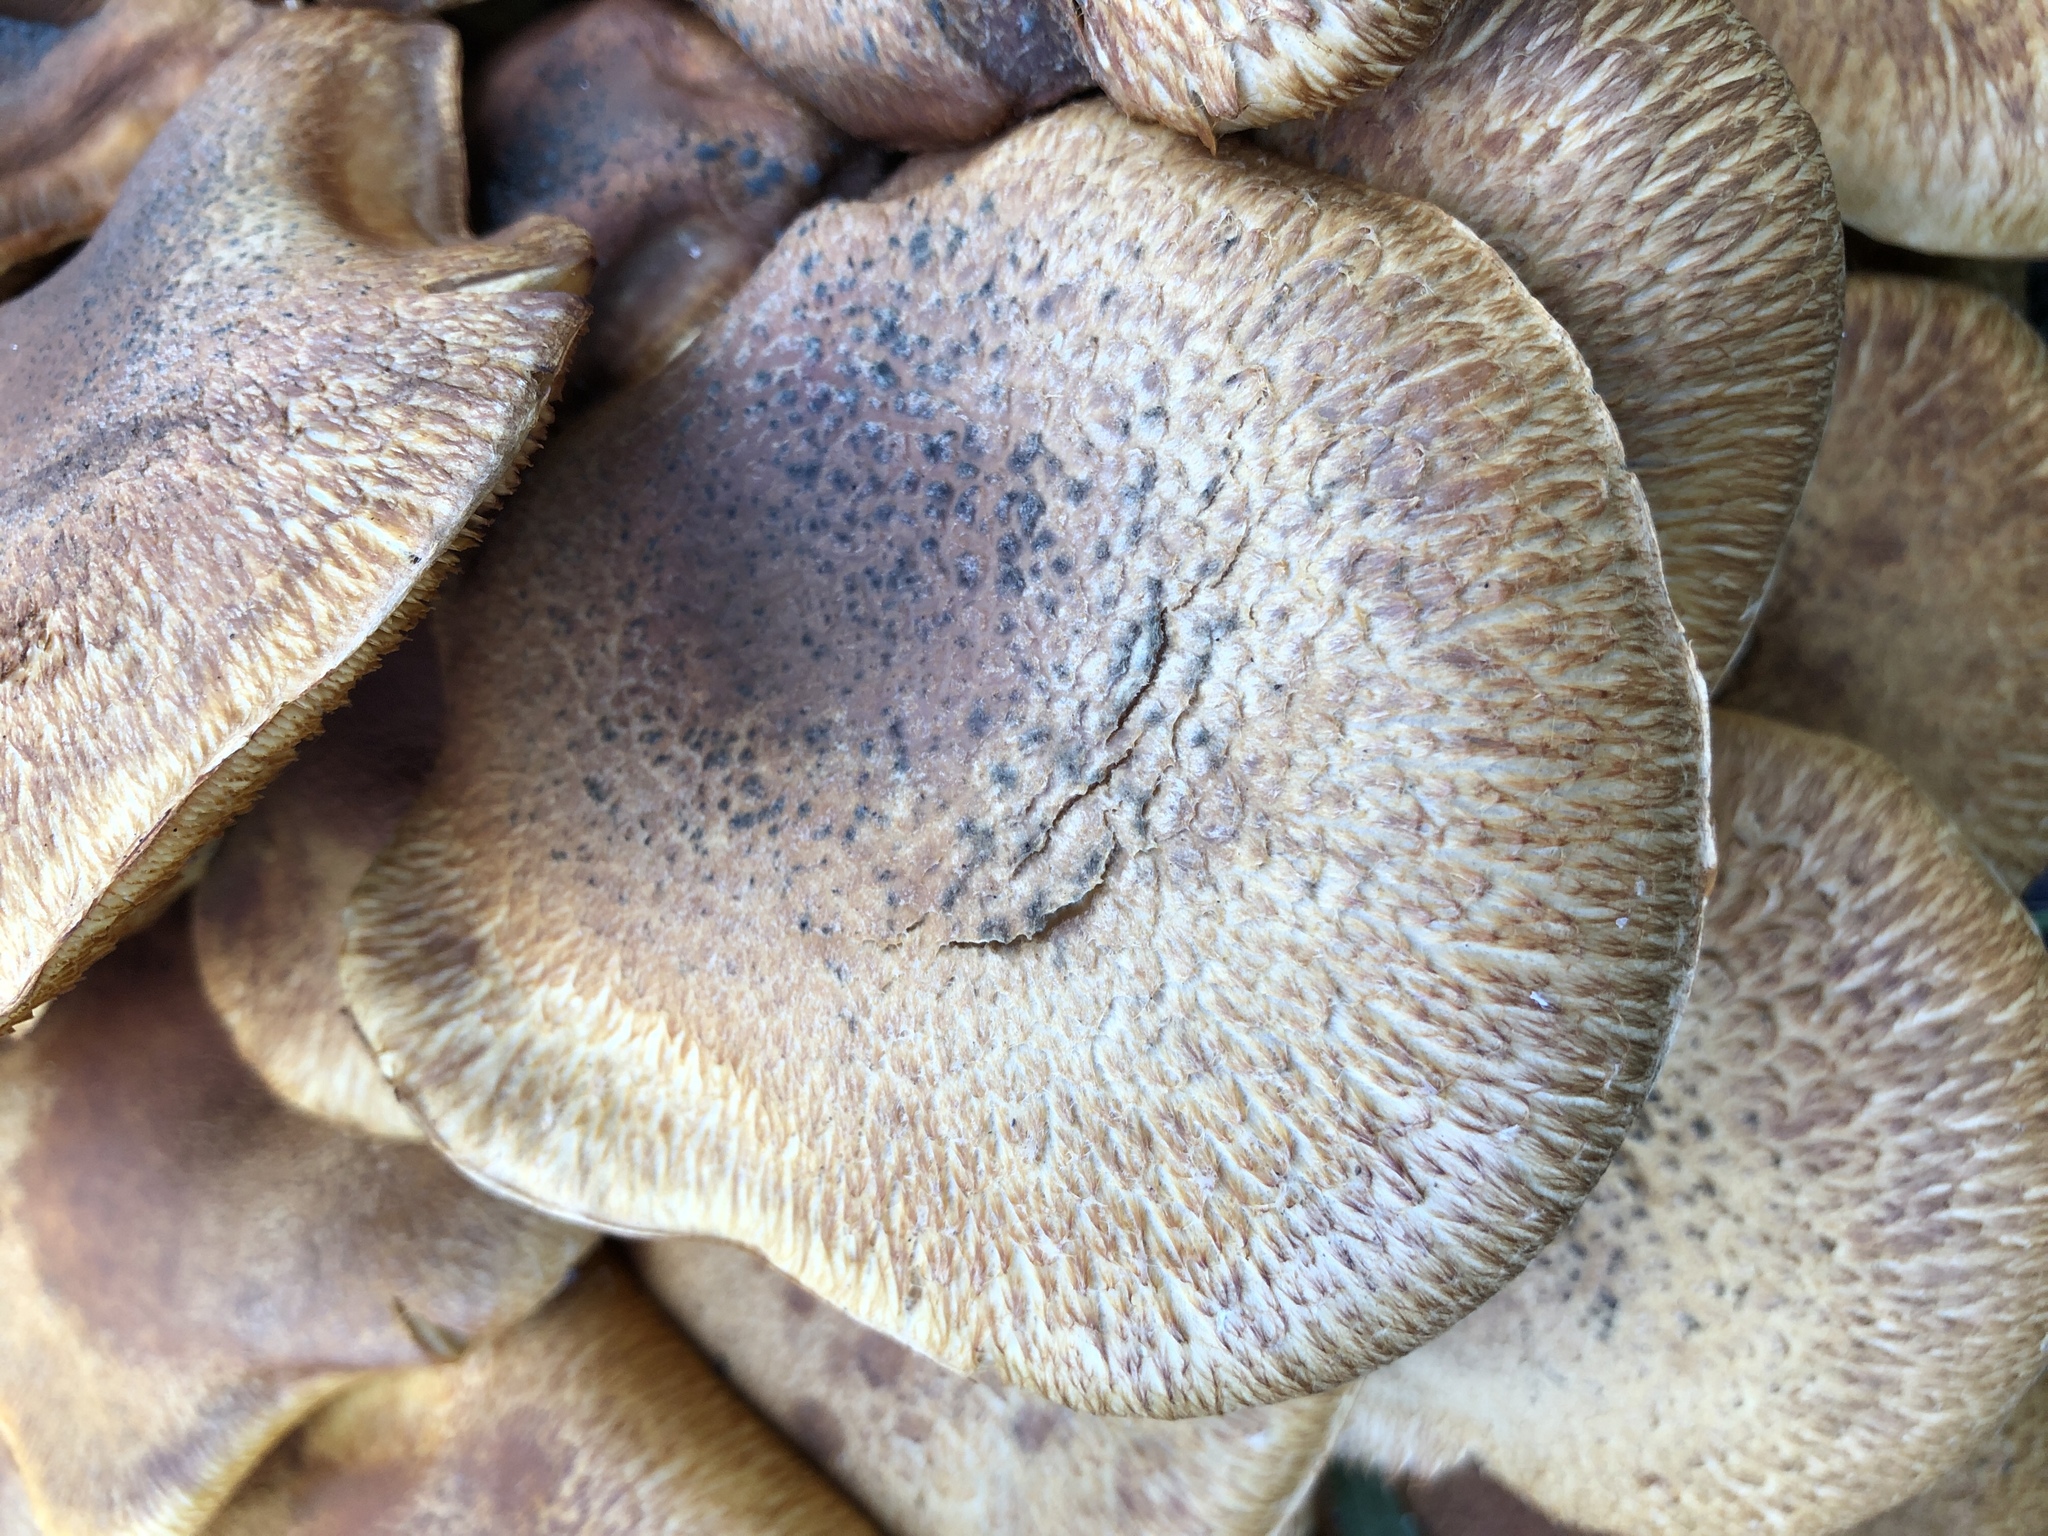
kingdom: Fungi
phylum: Basidiomycota
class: Agaricomycetes
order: Agaricales
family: Hymenogastraceae
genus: Gymnopilus
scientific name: Gymnopilus junonius
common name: Spectacular rustgill
